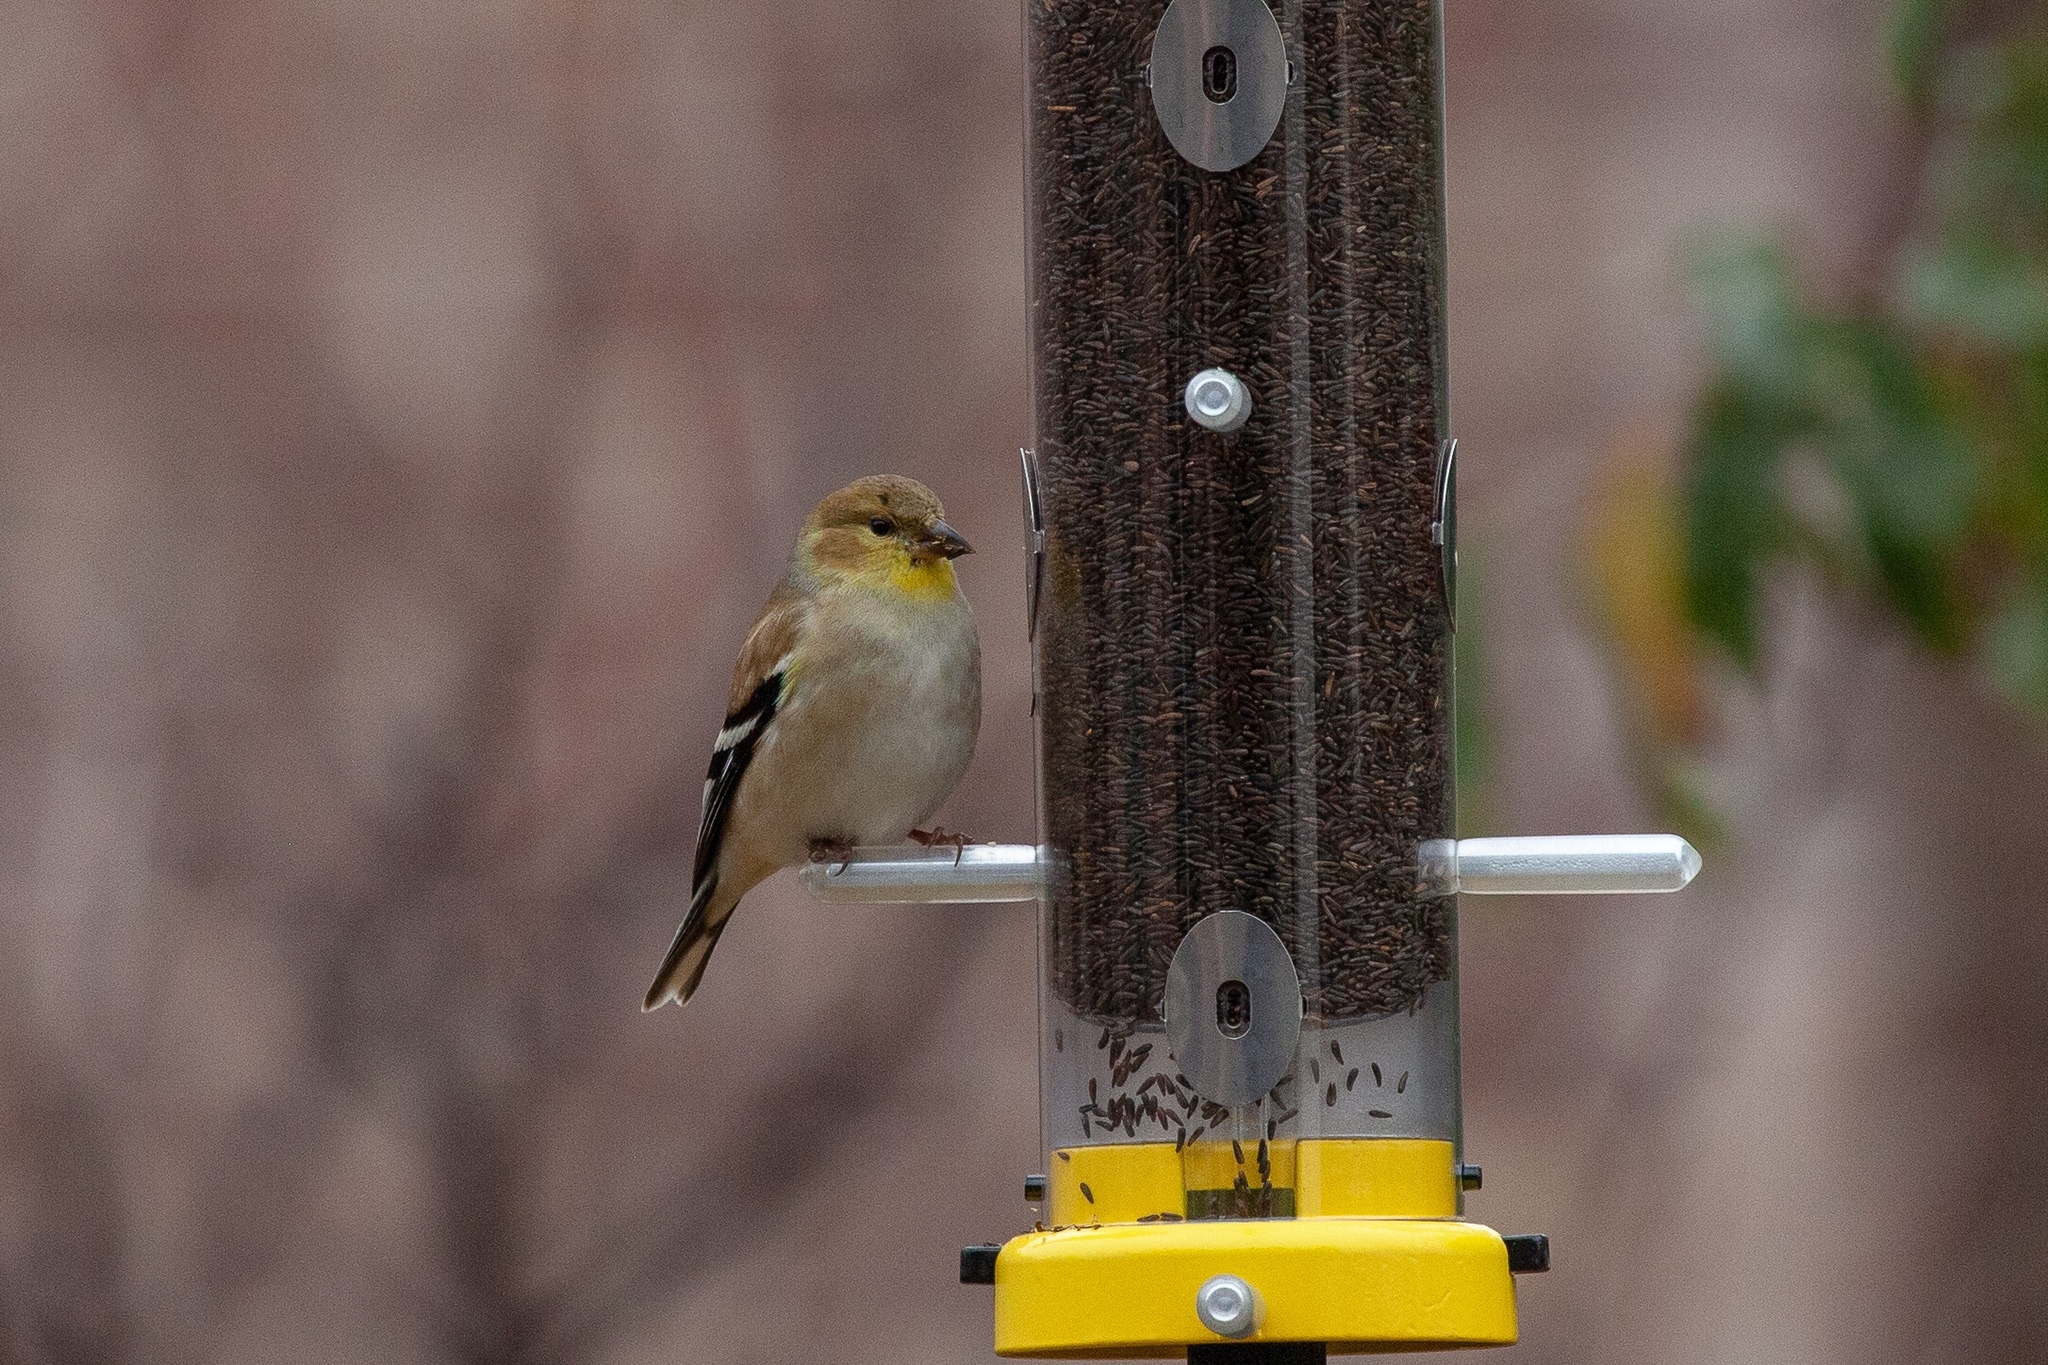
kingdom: Animalia
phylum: Chordata
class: Aves
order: Passeriformes
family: Fringillidae
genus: Spinus
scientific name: Spinus tristis
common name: American goldfinch
